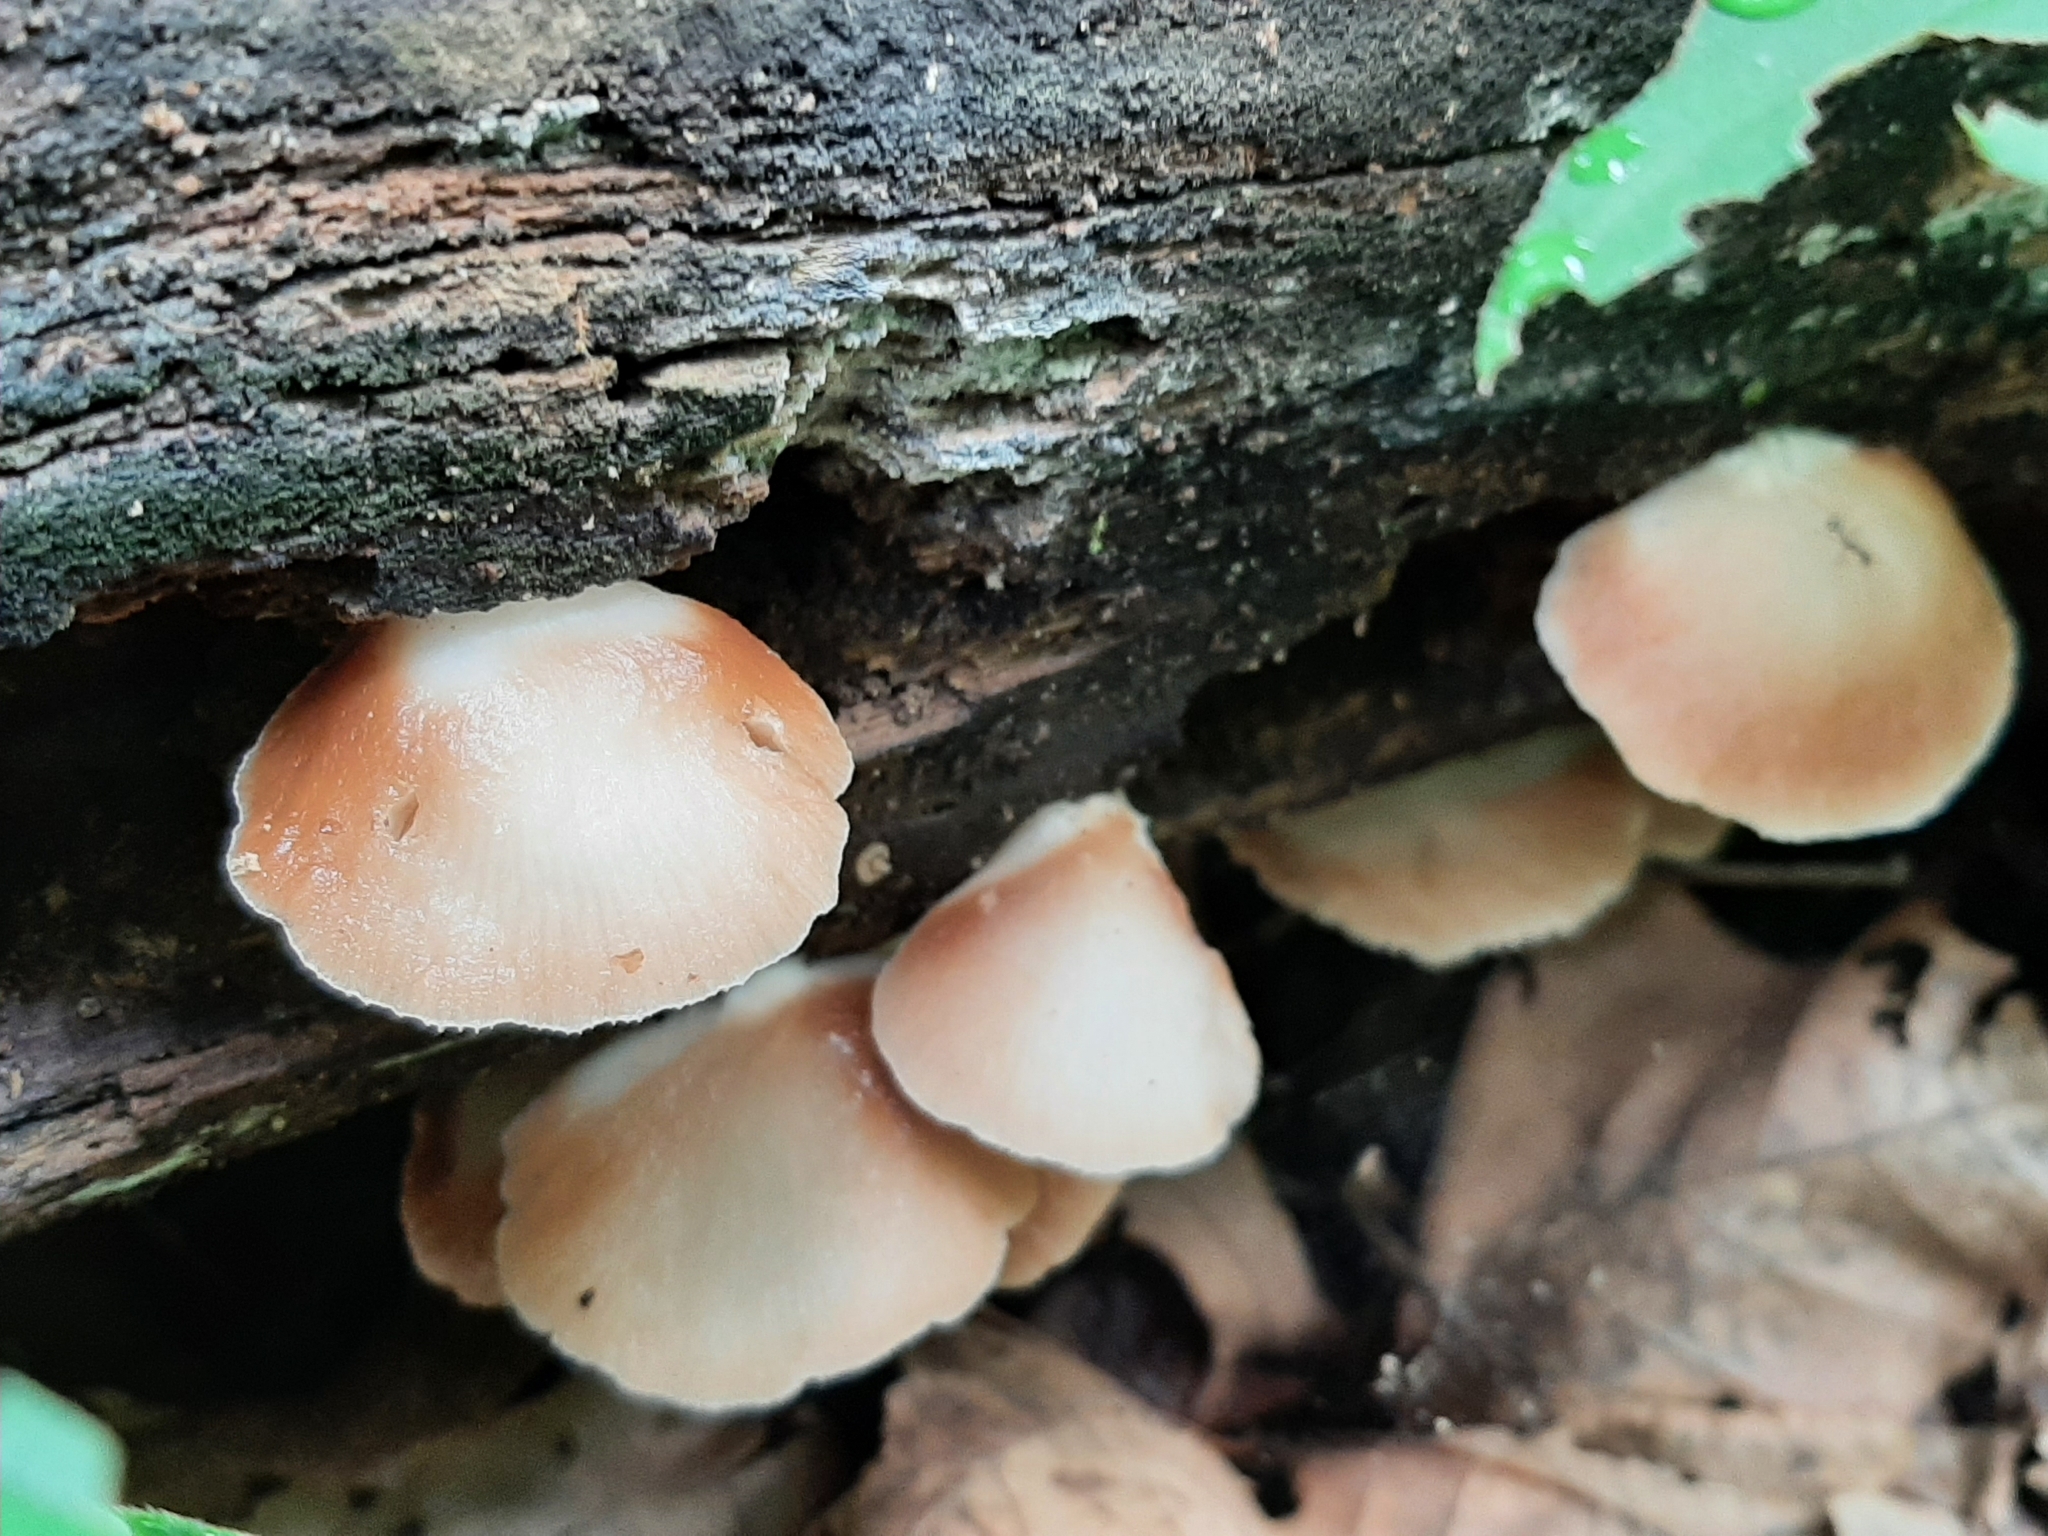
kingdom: Fungi
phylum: Basidiomycota
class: Agaricomycetes
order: Agaricales
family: Crepidotaceae
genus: Crepidotus
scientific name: Crepidotus applanatus
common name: Flat crep
